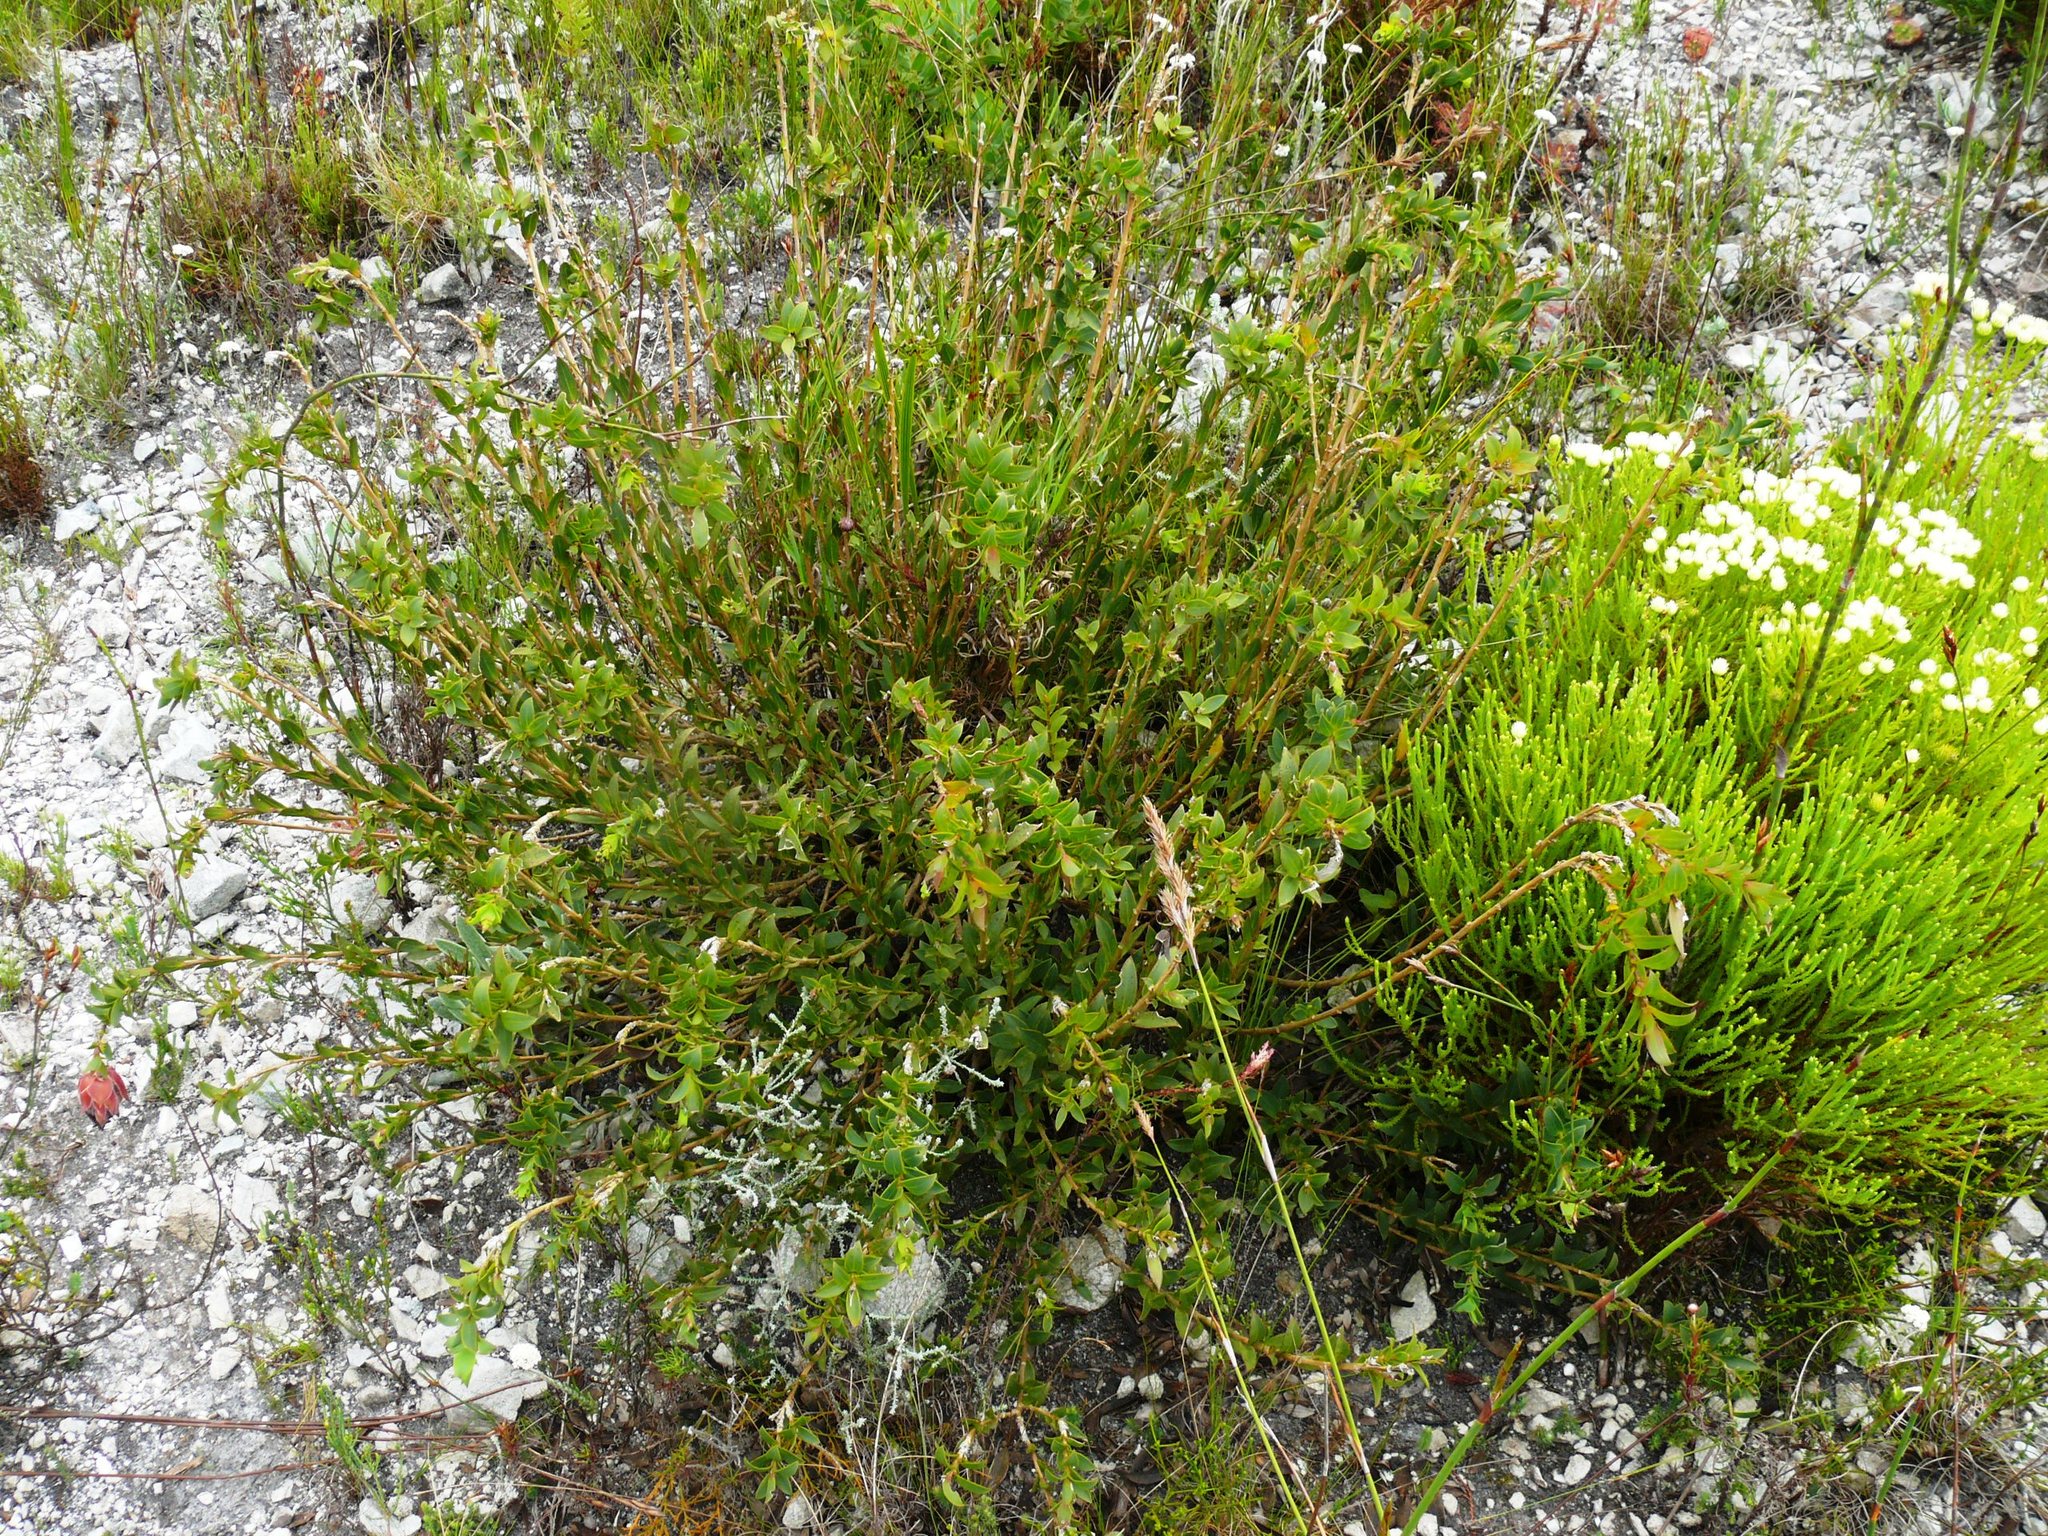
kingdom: Plantae
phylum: Tracheophyta
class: Magnoliopsida
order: Fabales
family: Fabaceae
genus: Liparia
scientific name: Liparia splendens
